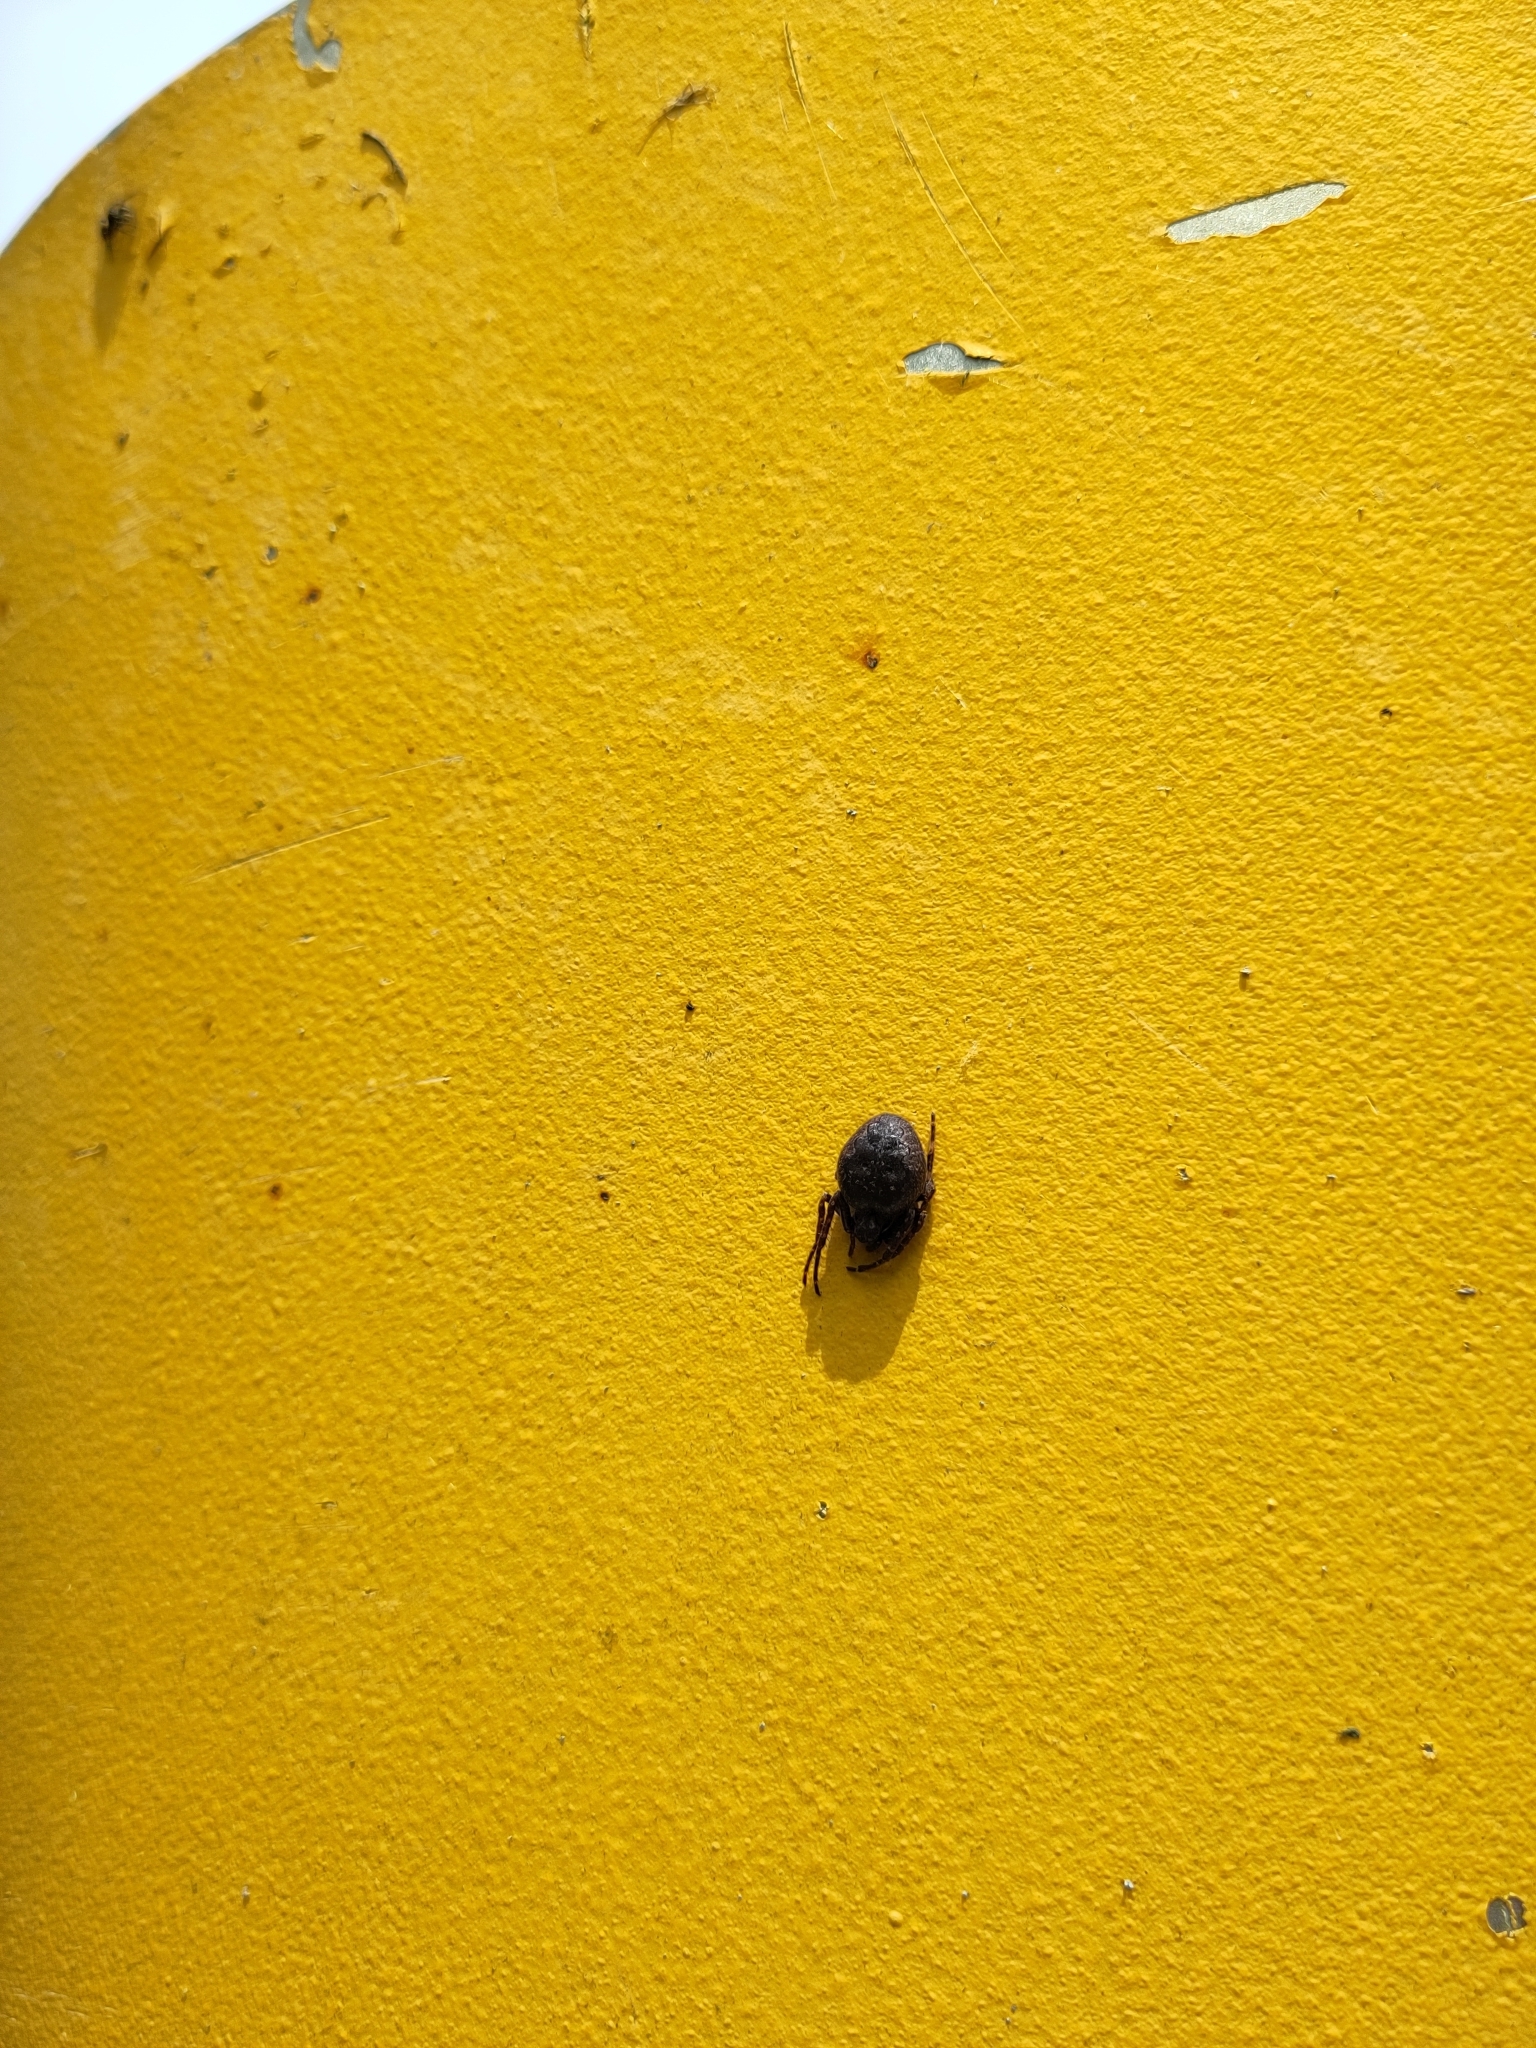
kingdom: Animalia
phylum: Arthropoda
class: Arachnida
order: Araneae
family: Araneidae
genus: Nuctenea
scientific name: Nuctenea umbratica
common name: Toad spider
